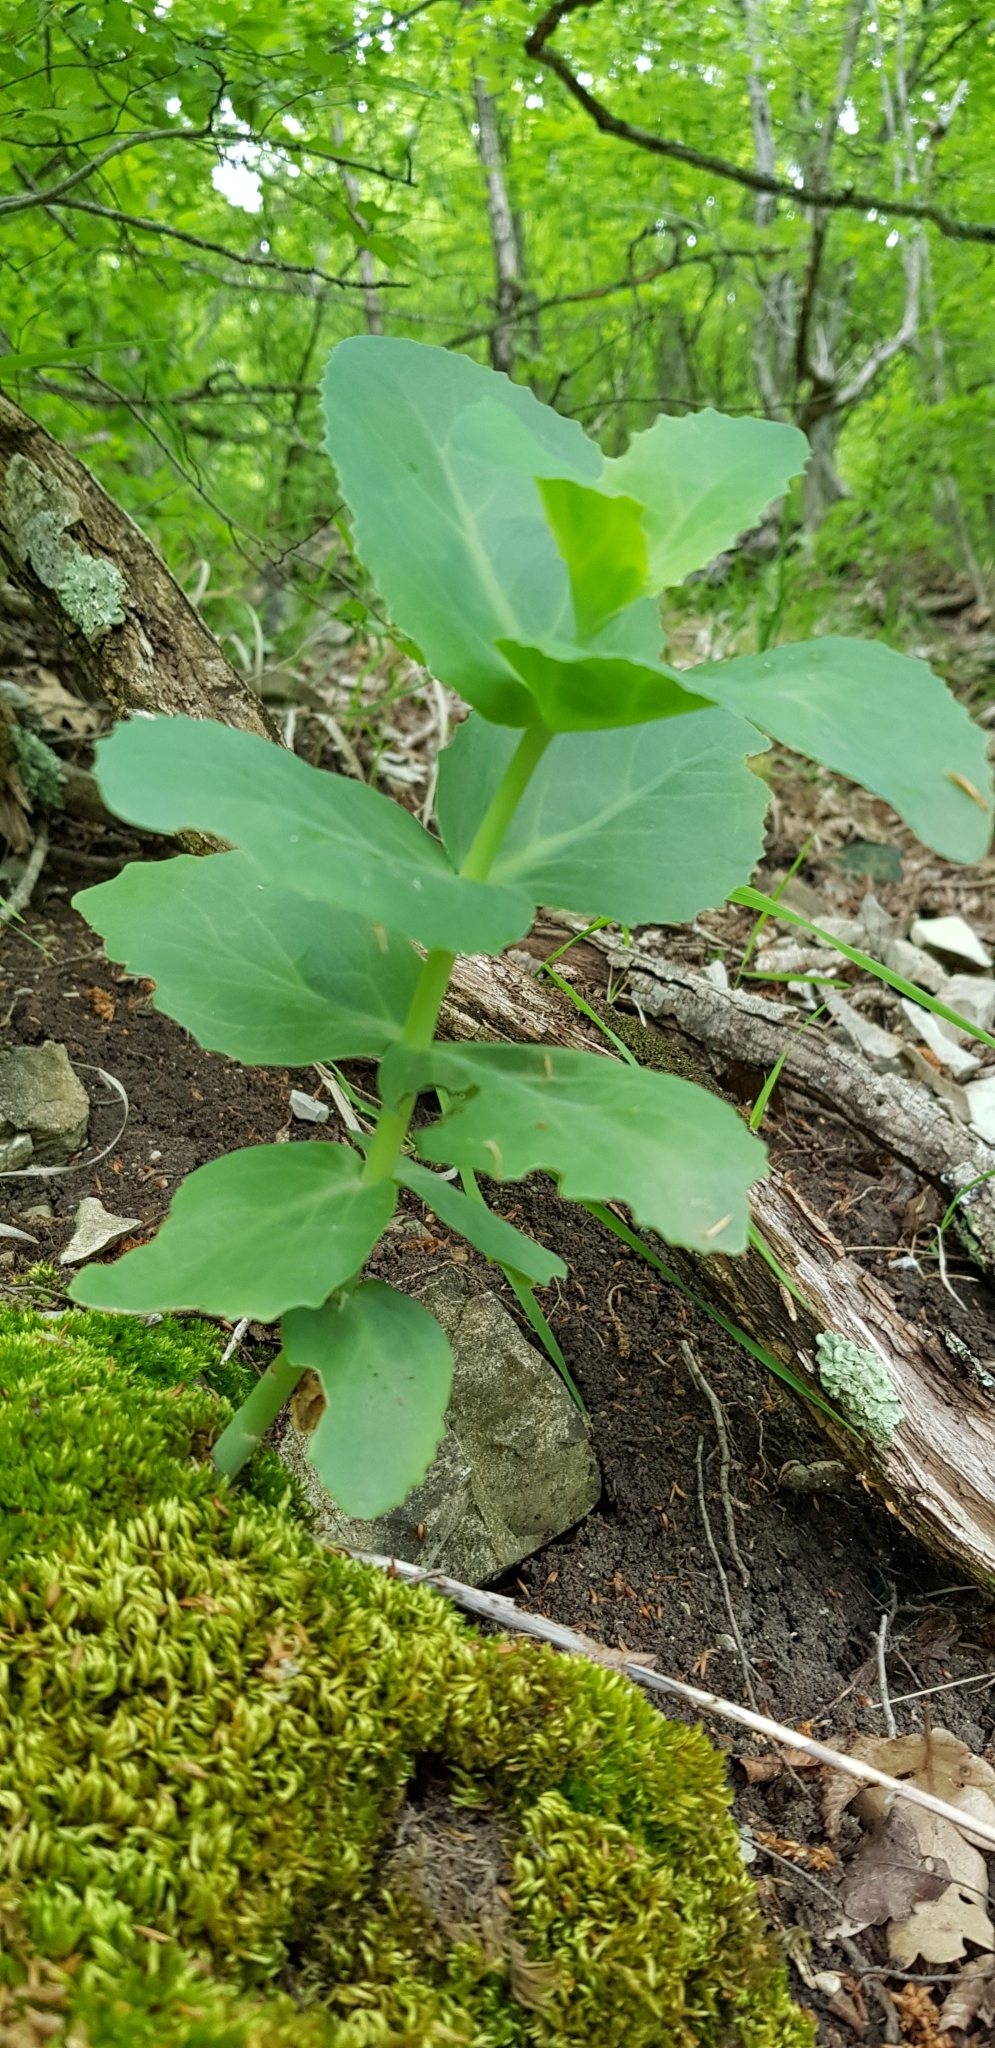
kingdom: Plantae
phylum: Tracheophyta
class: Magnoliopsida
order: Saxifragales
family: Crassulaceae
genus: Hylotelephium
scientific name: Hylotelephium maximum
